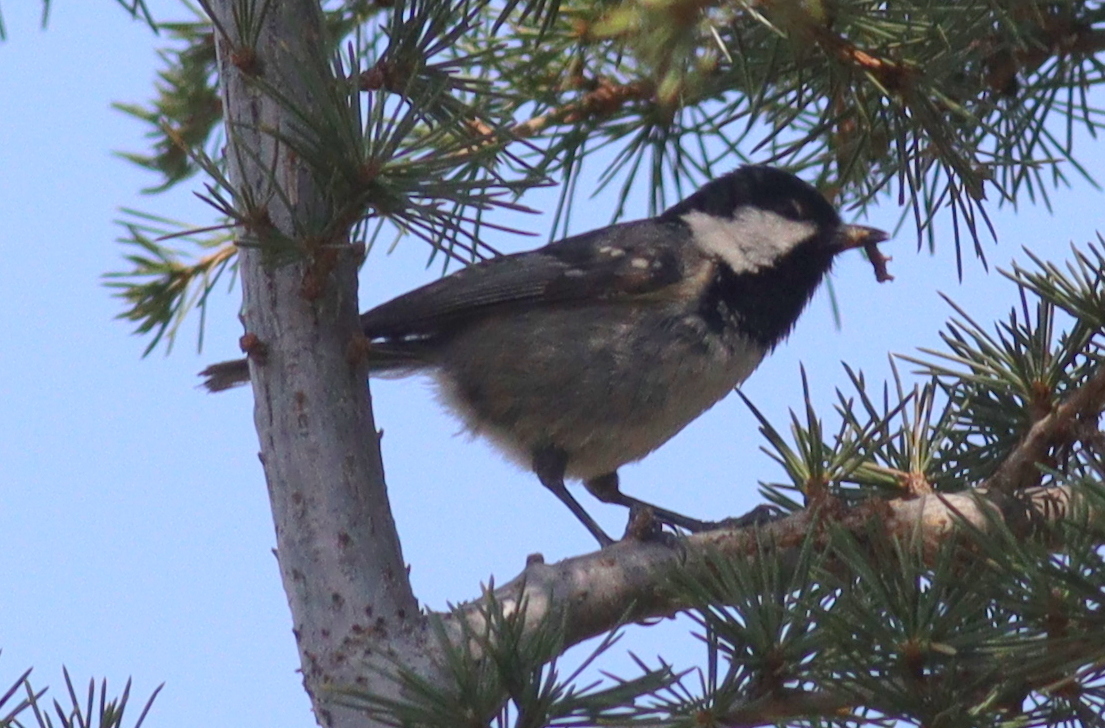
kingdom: Animalia
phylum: Chordata
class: Aves
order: Passeriformes
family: Paridae
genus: Periparus
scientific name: Periparus ater
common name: Coal tit
